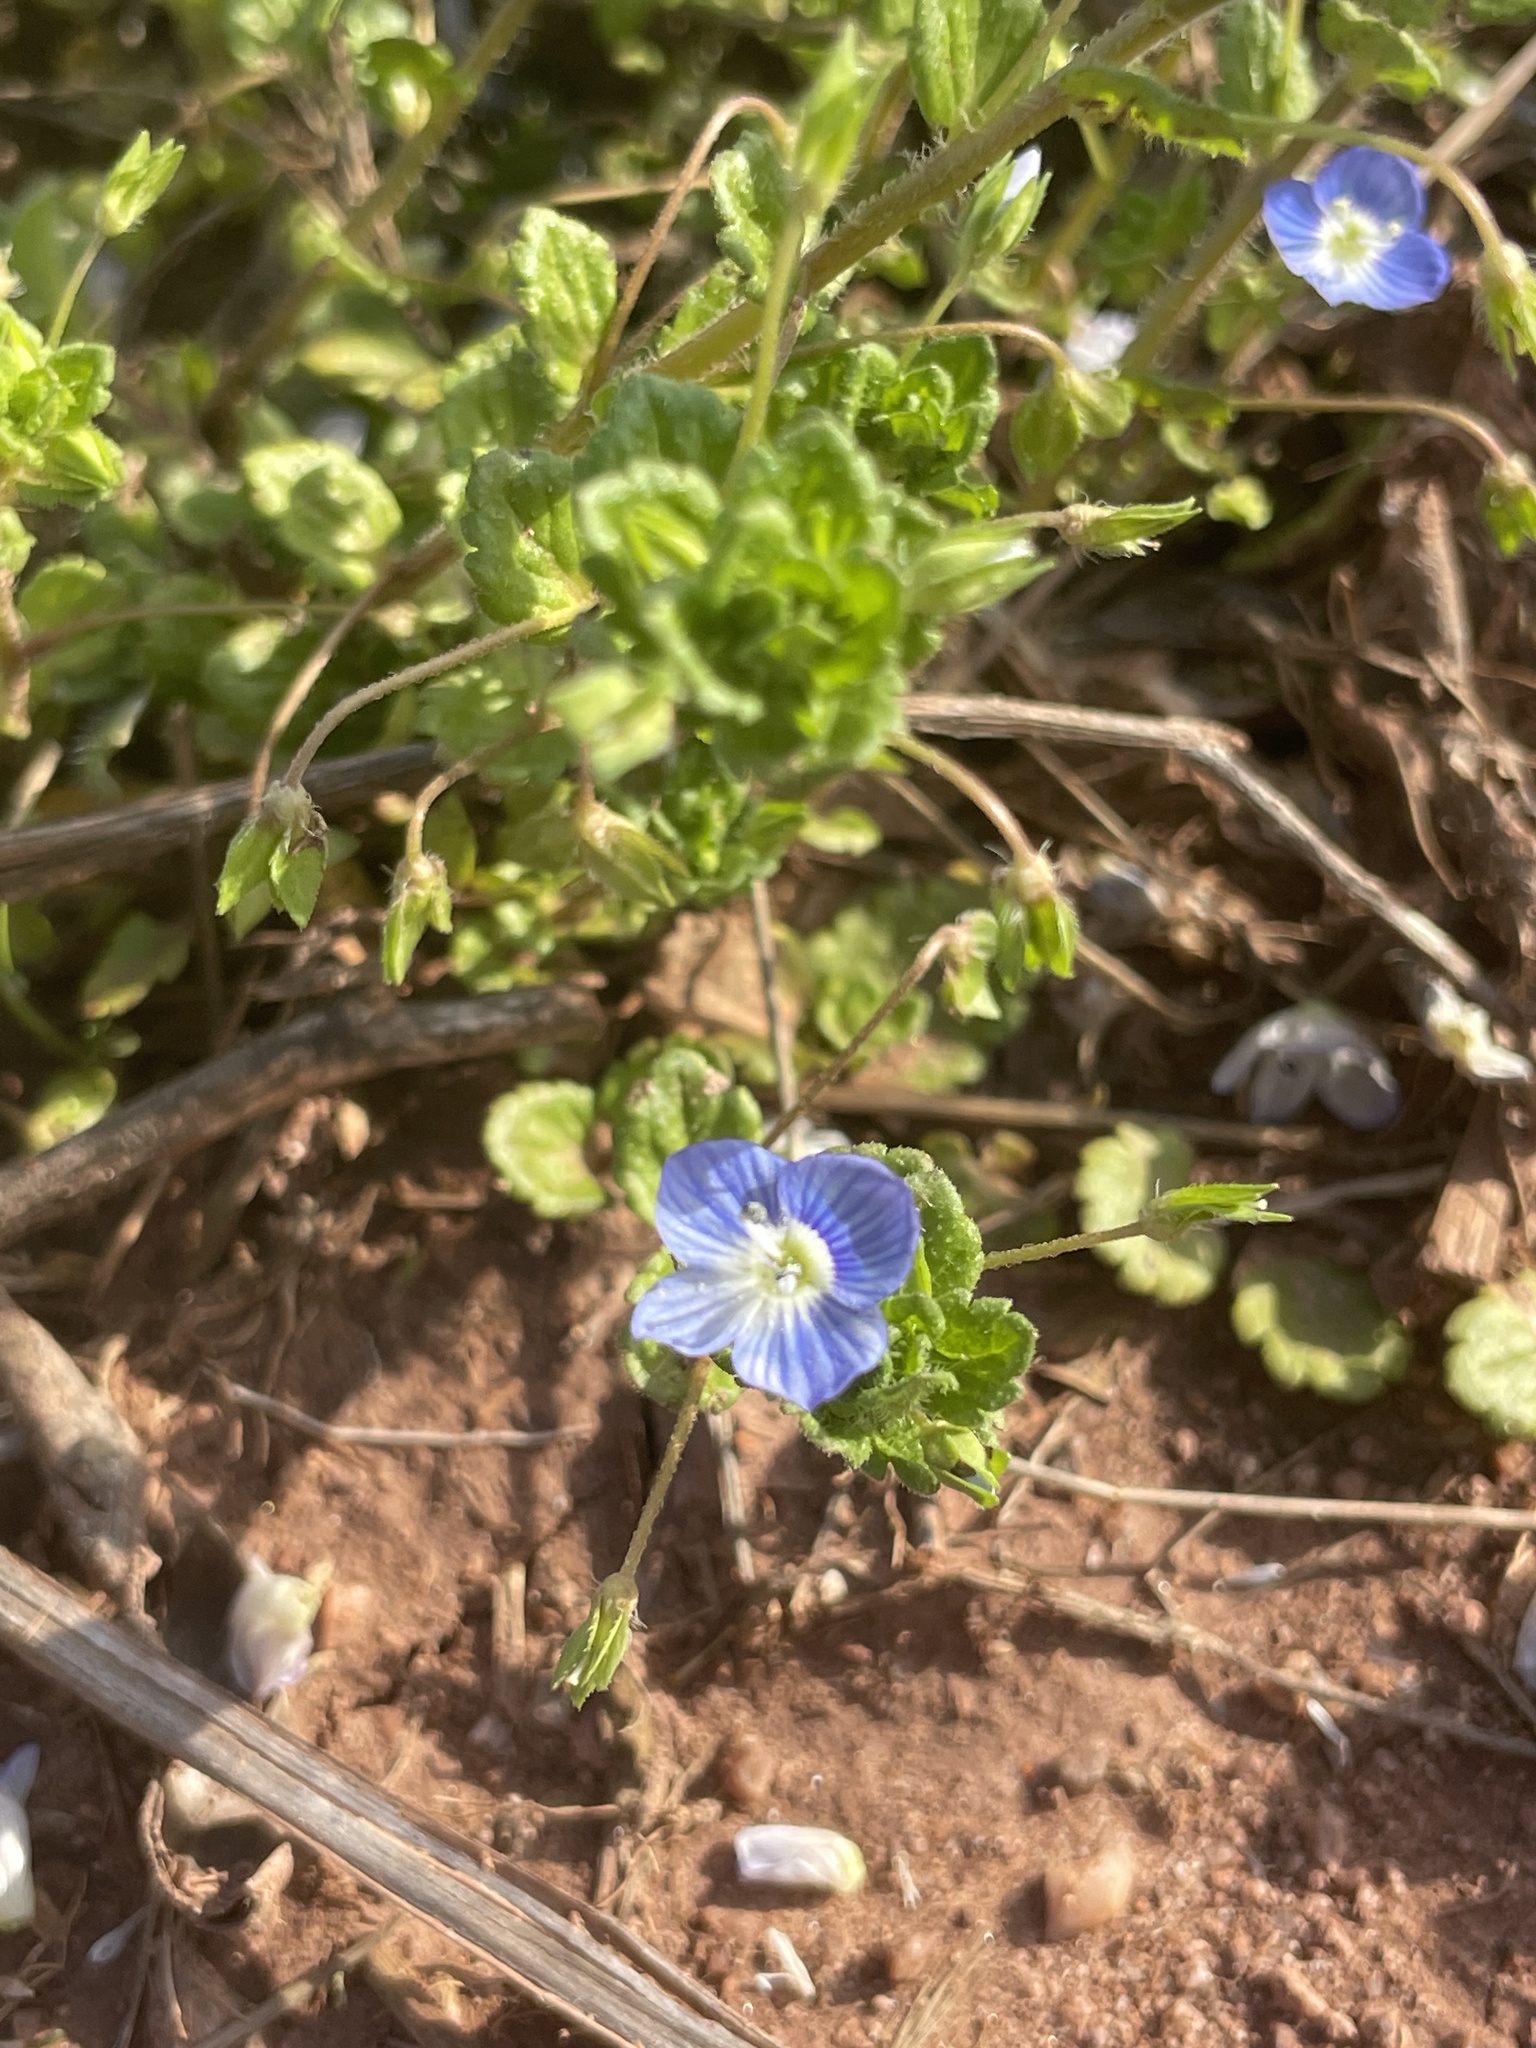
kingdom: Plantae
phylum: Tracheophyta
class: Magnoliopsida
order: Lamiales
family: Plantaginaceae
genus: Veronica
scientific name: Veronica persica
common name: Common field-speedwell
